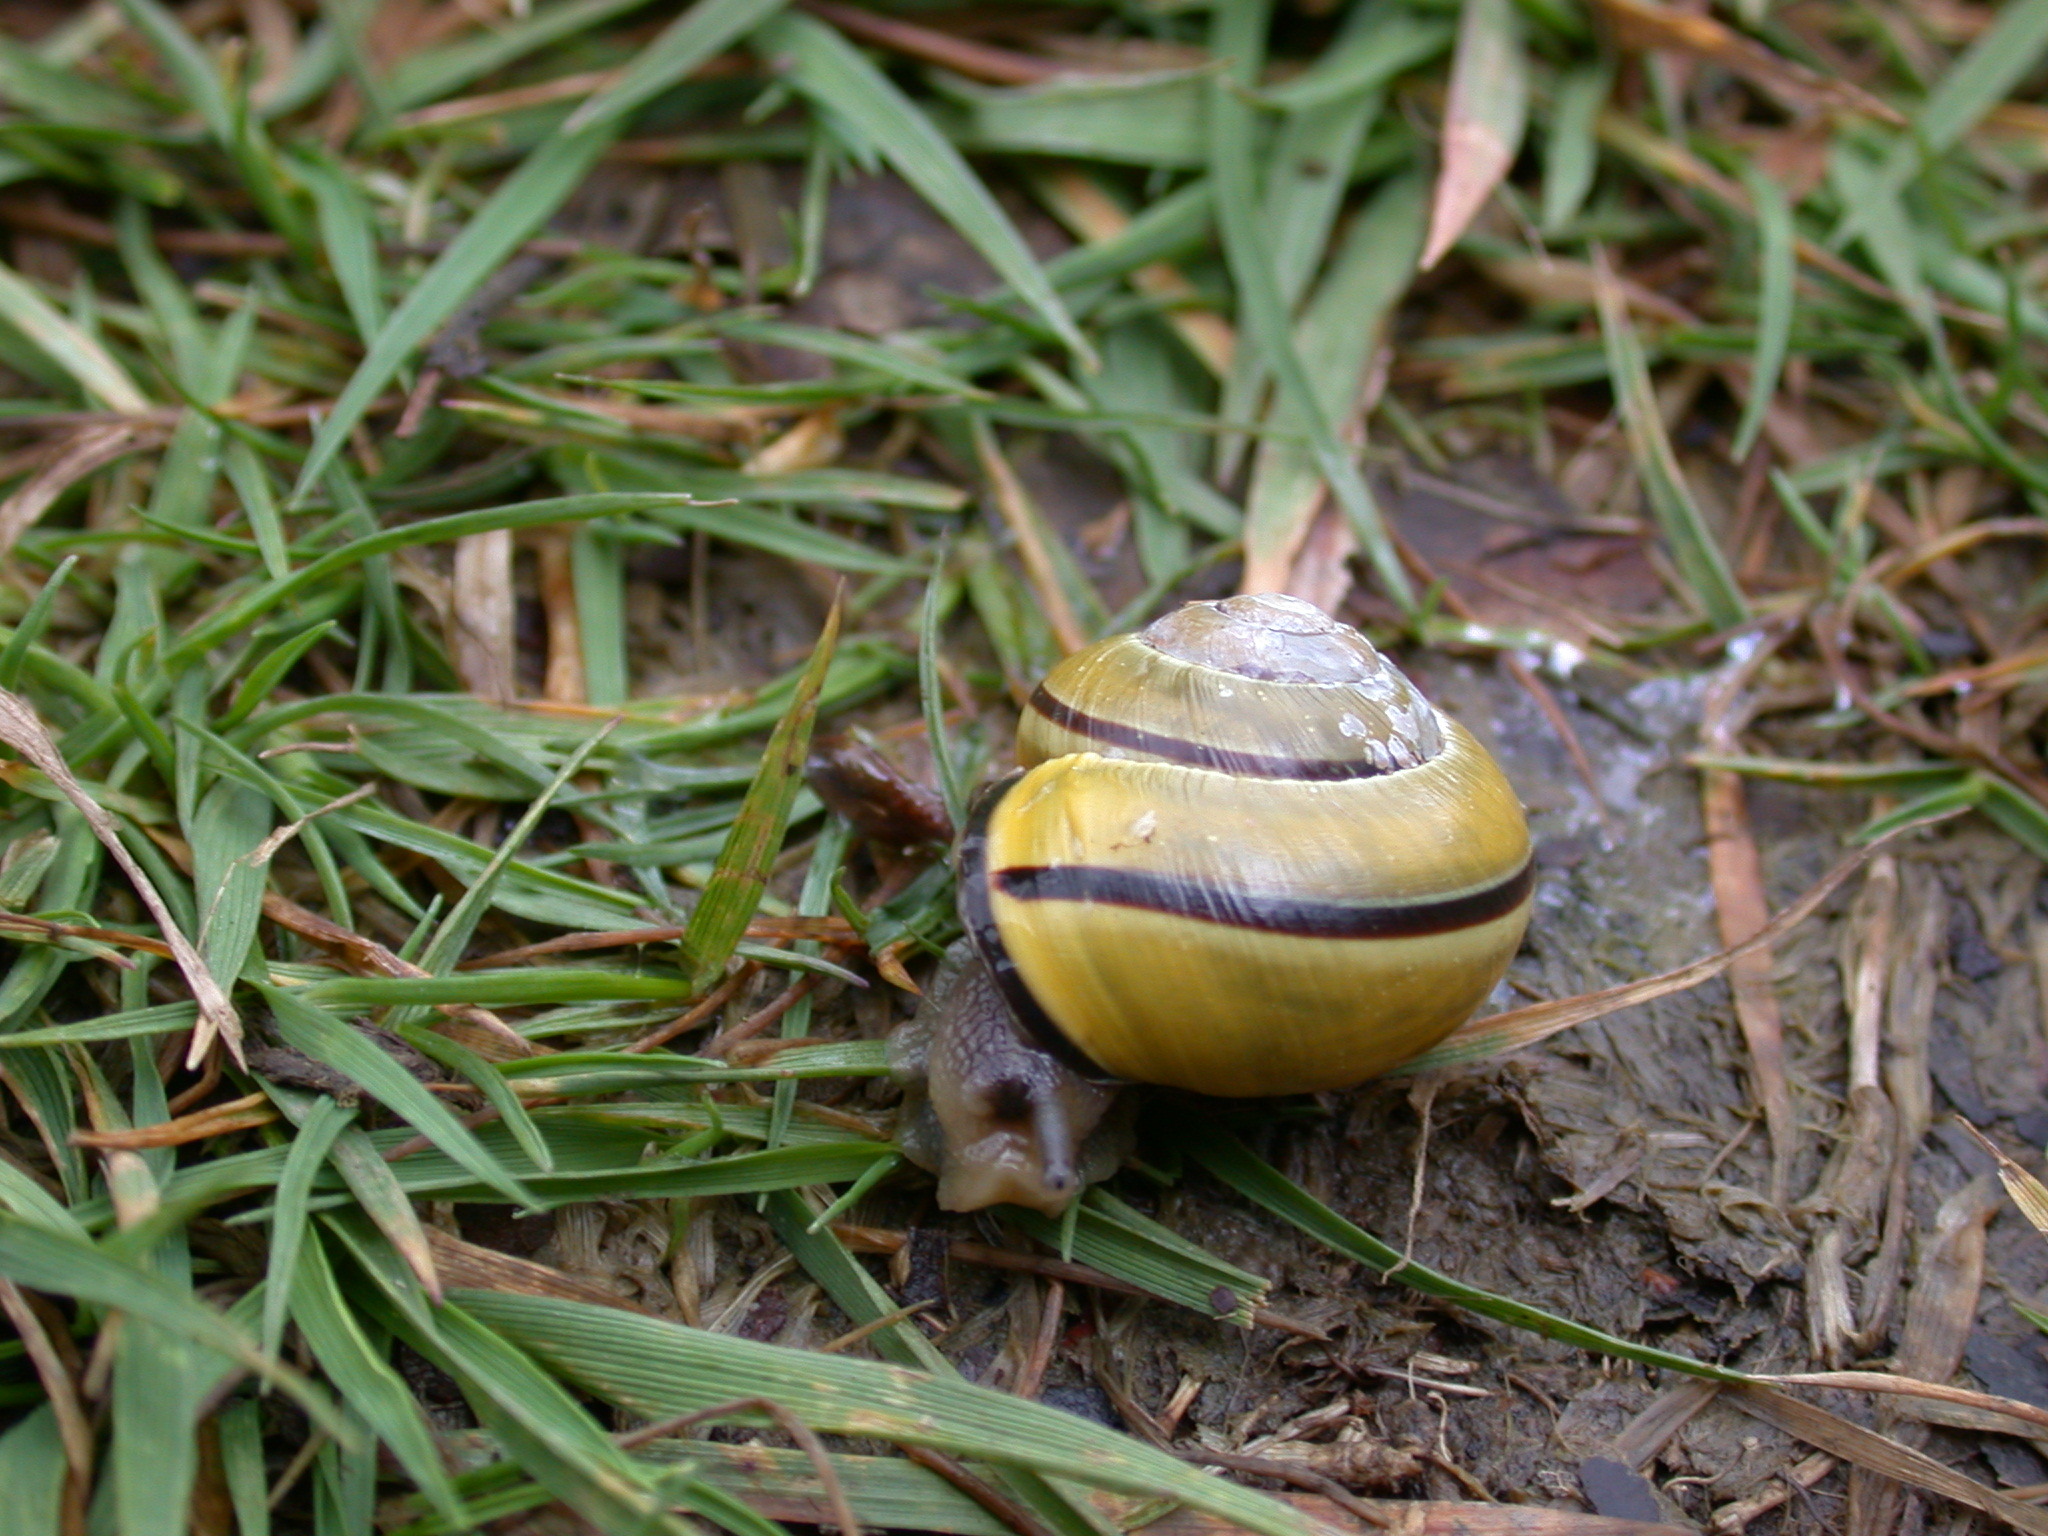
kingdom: Animalia
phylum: Mollusca
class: Gastropoda
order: Stylommatophora
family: Helicidae
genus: Cepaea
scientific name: Cepaea nemoralis
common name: Grovesnail
